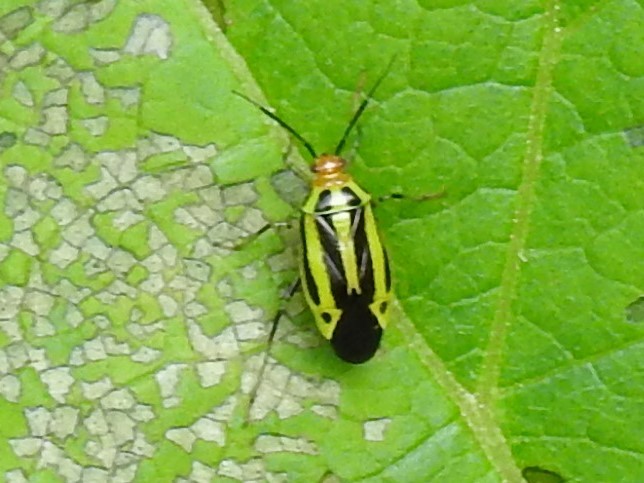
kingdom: Animalia
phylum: Arthropoda
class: Insecta
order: Hemiptera
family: Miridae
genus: Poecilocapsus
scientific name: Poecilocapsus lineatus
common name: Four-lined plant bug
